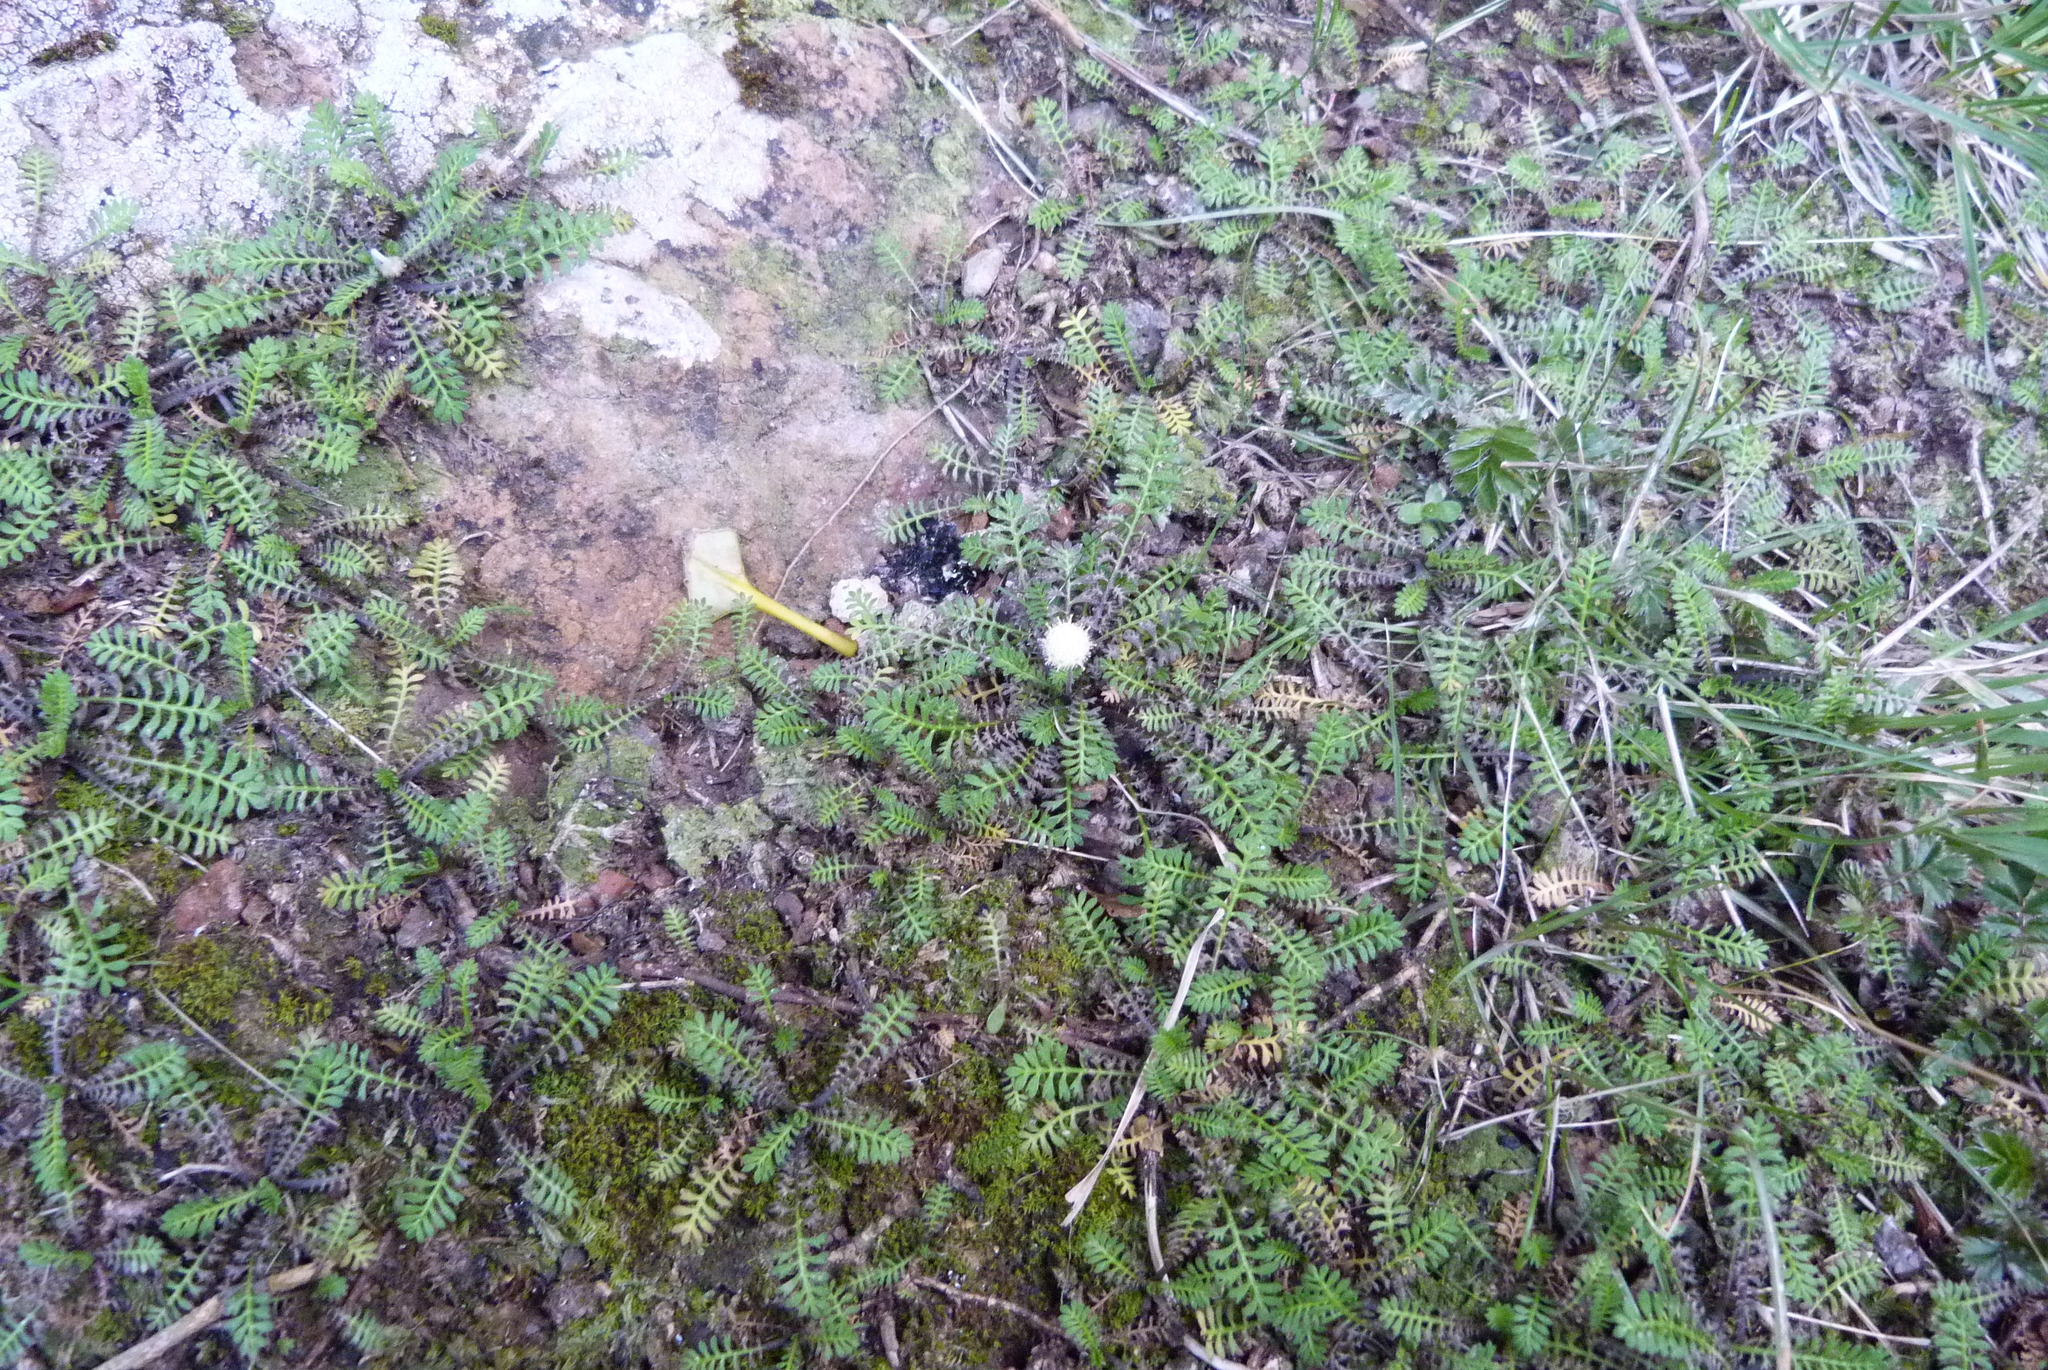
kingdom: Plantae
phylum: Tracheophyta
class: Magnoliopsida
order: Asterales
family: Asteraceae
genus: Leptinella
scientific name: Leptinella minor
